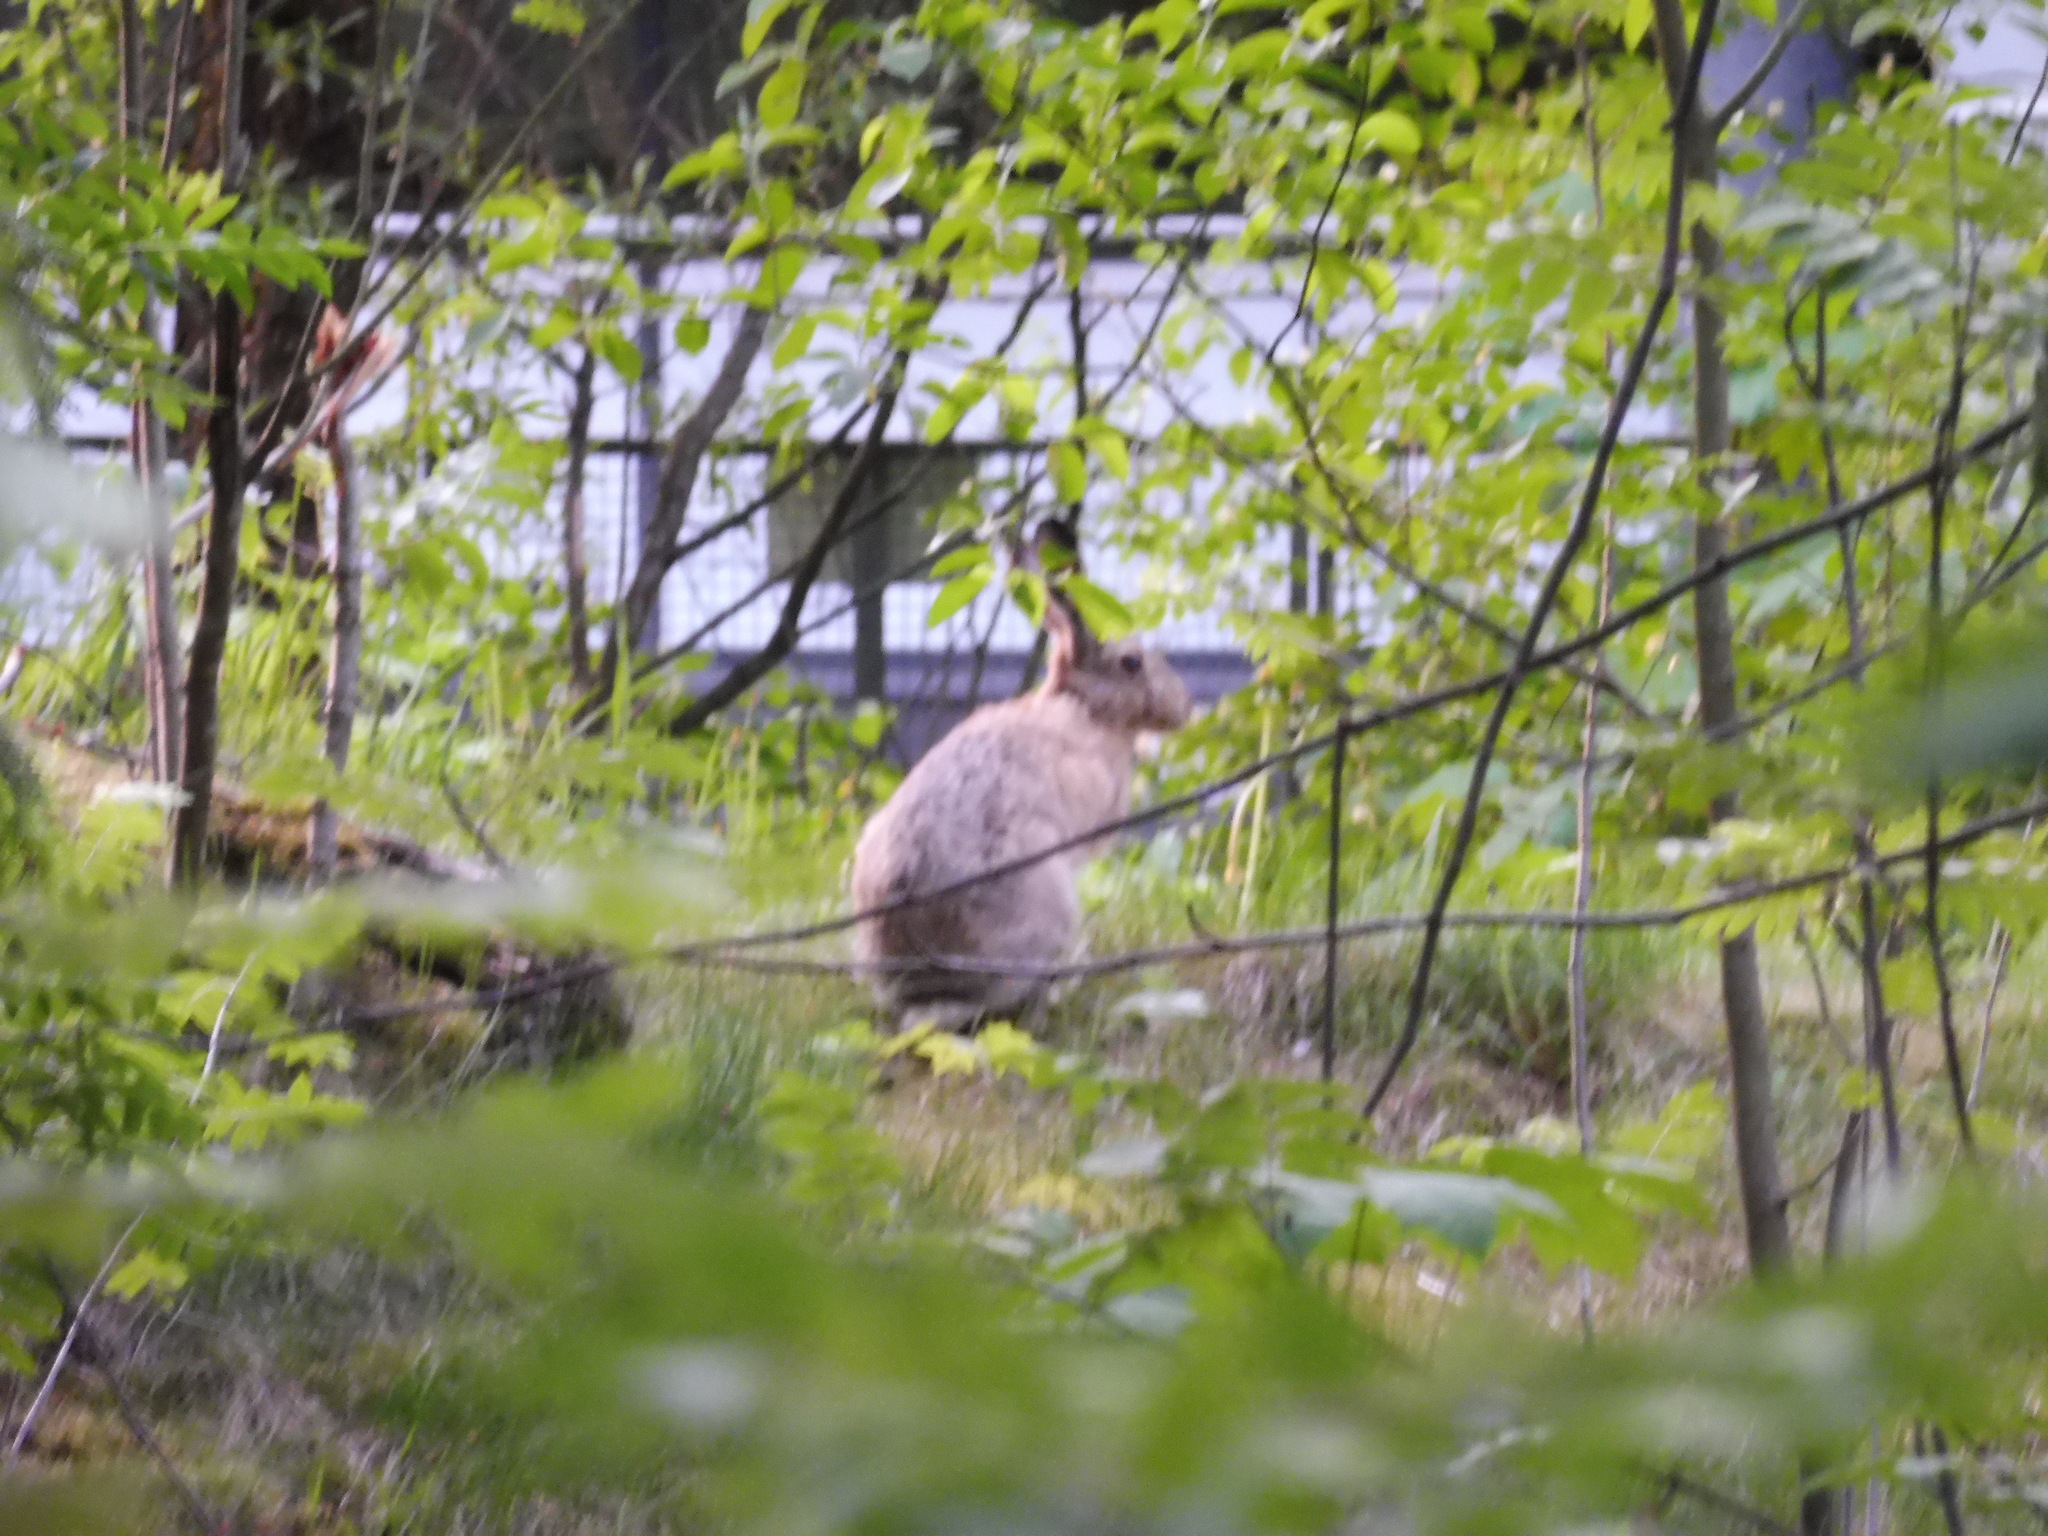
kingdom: Animalia
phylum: Chordata
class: Mammalia
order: Lagomorpha
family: Leporidae
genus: Lepus
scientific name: Lepus europaeus
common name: European hare
